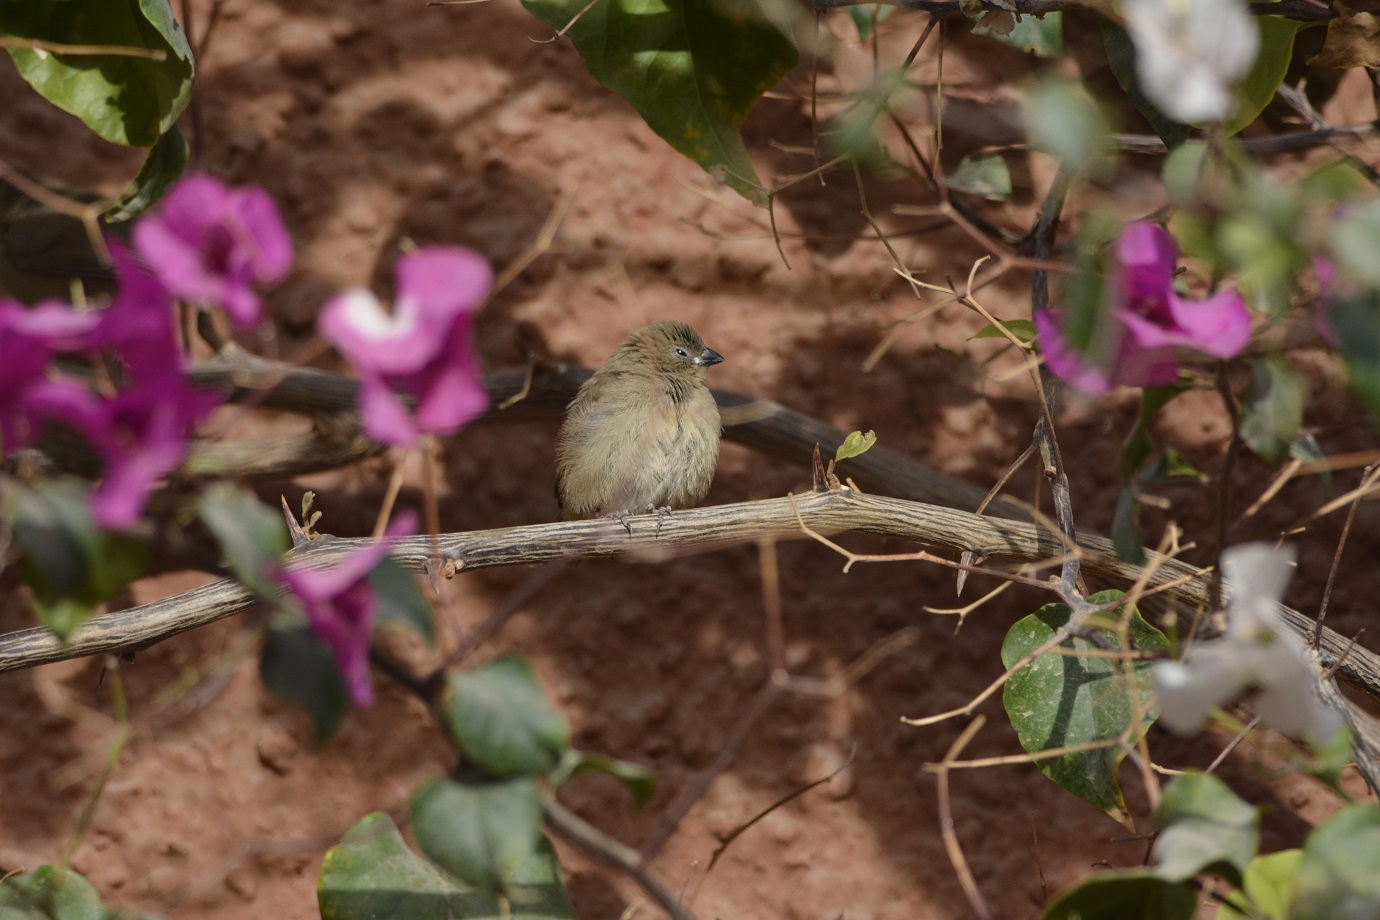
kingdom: Animalia
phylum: Chordata
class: Aves
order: Passeriformes
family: Estrildidae
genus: Lagonosticta
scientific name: Lagonosticta senegala
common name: Red-billed firefinch
